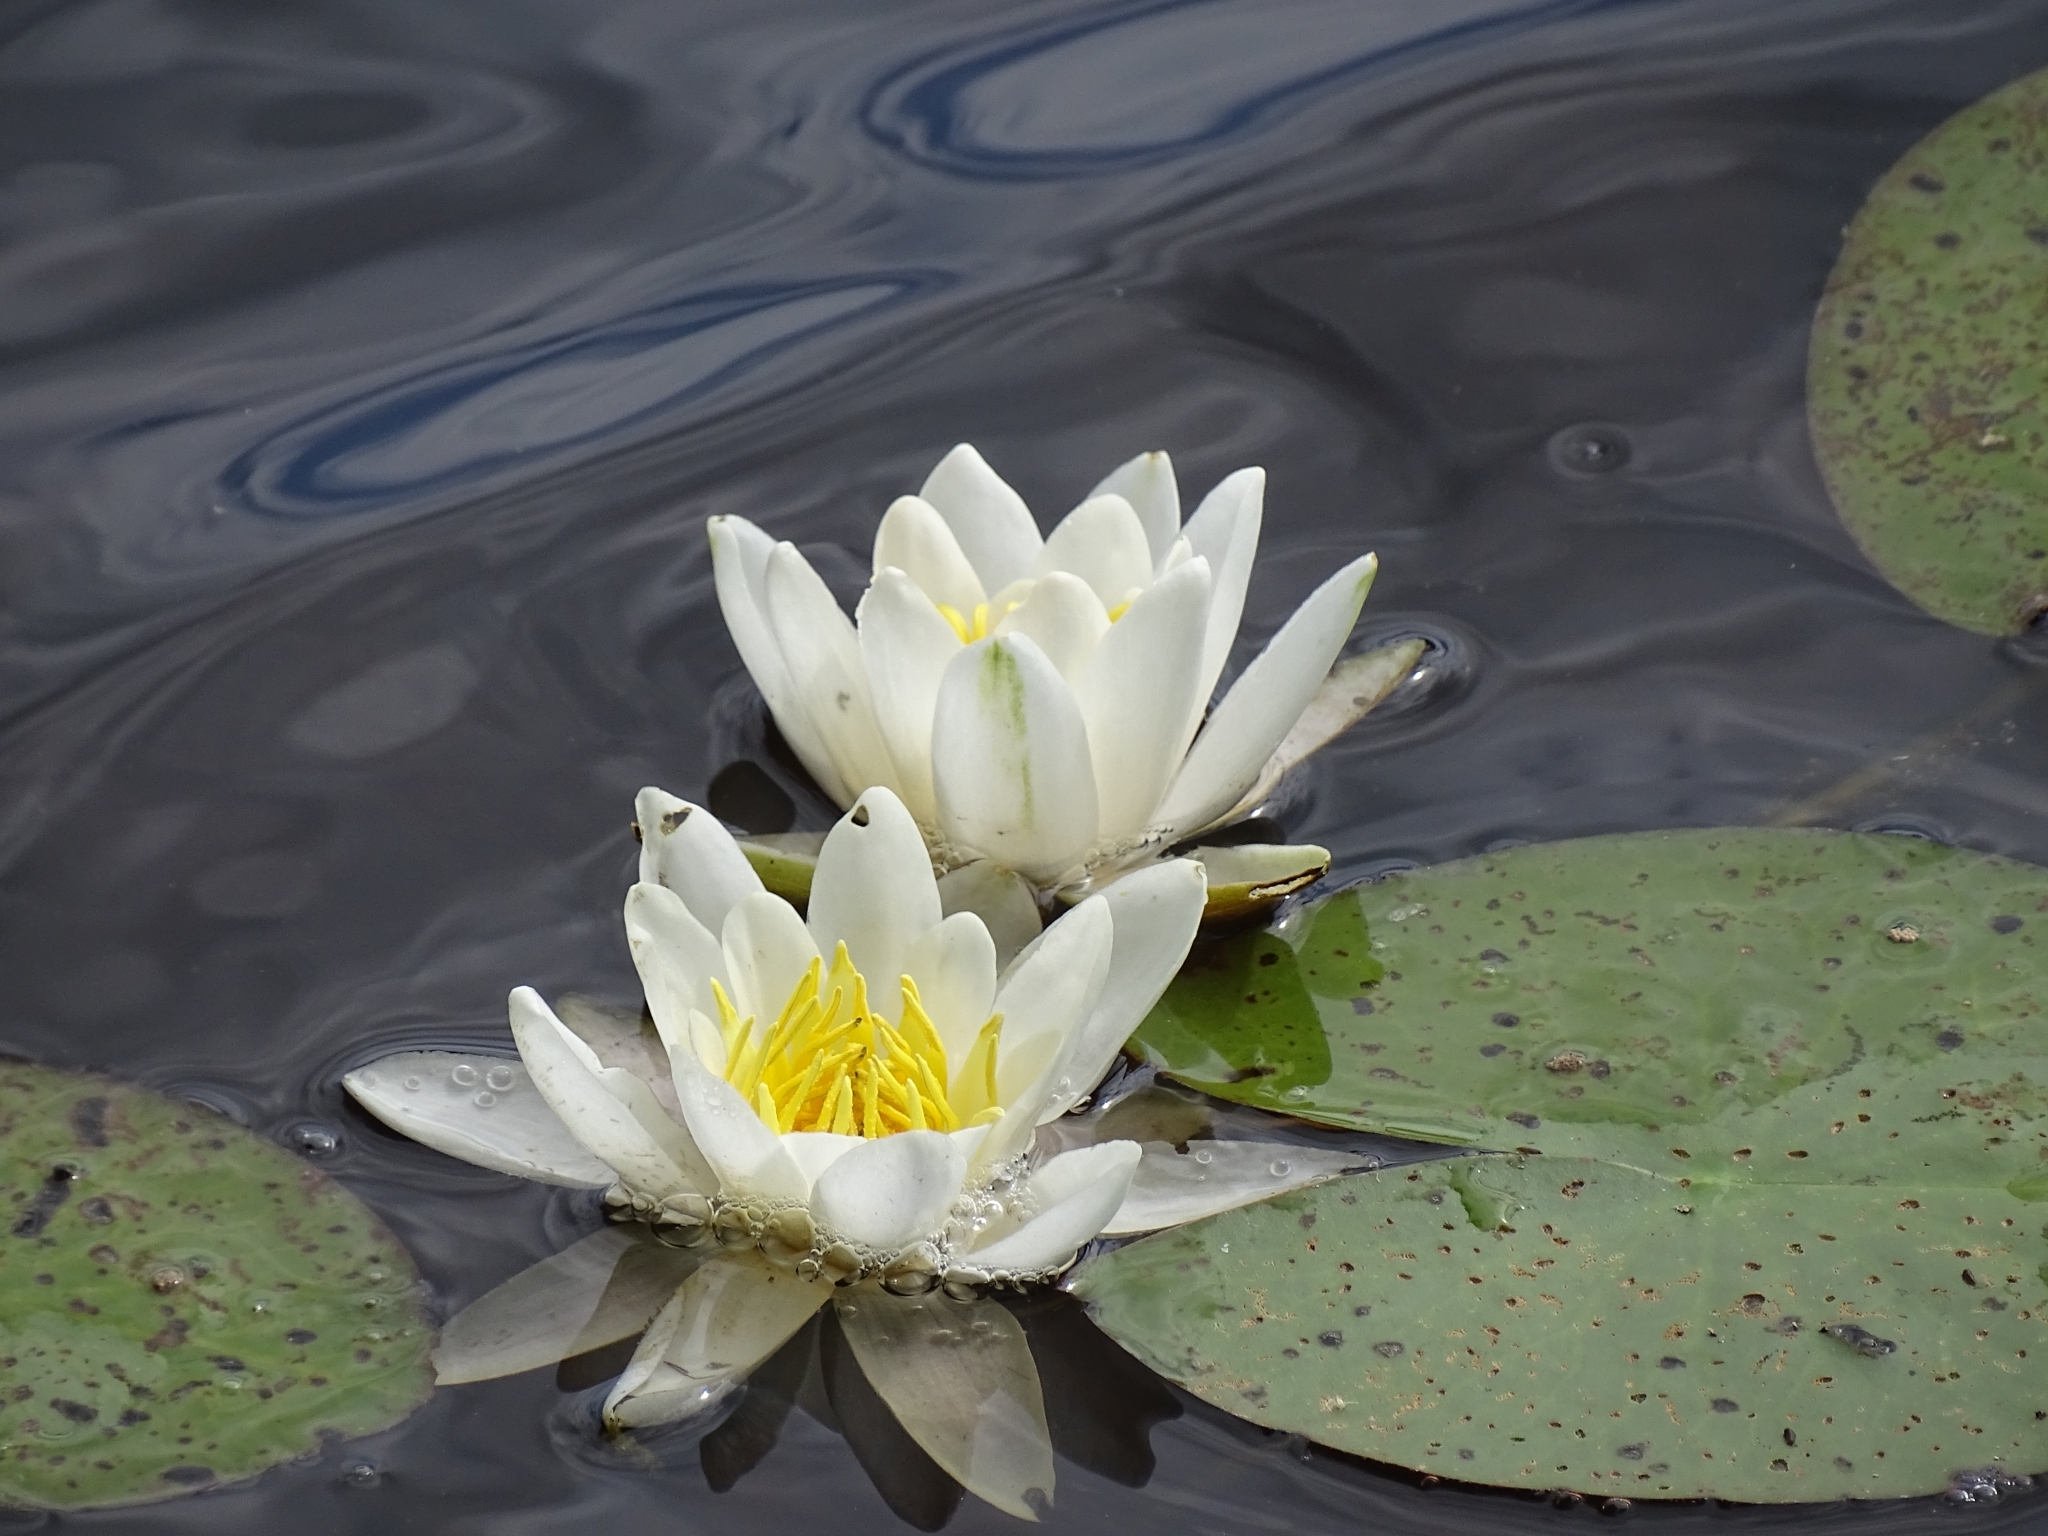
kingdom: Plantae
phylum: Tracheophyta
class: Magnoliopsida
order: Nymphaeales
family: Nymphaeaceae
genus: Nymphaea
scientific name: Nymphaea alba
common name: White water-lily
